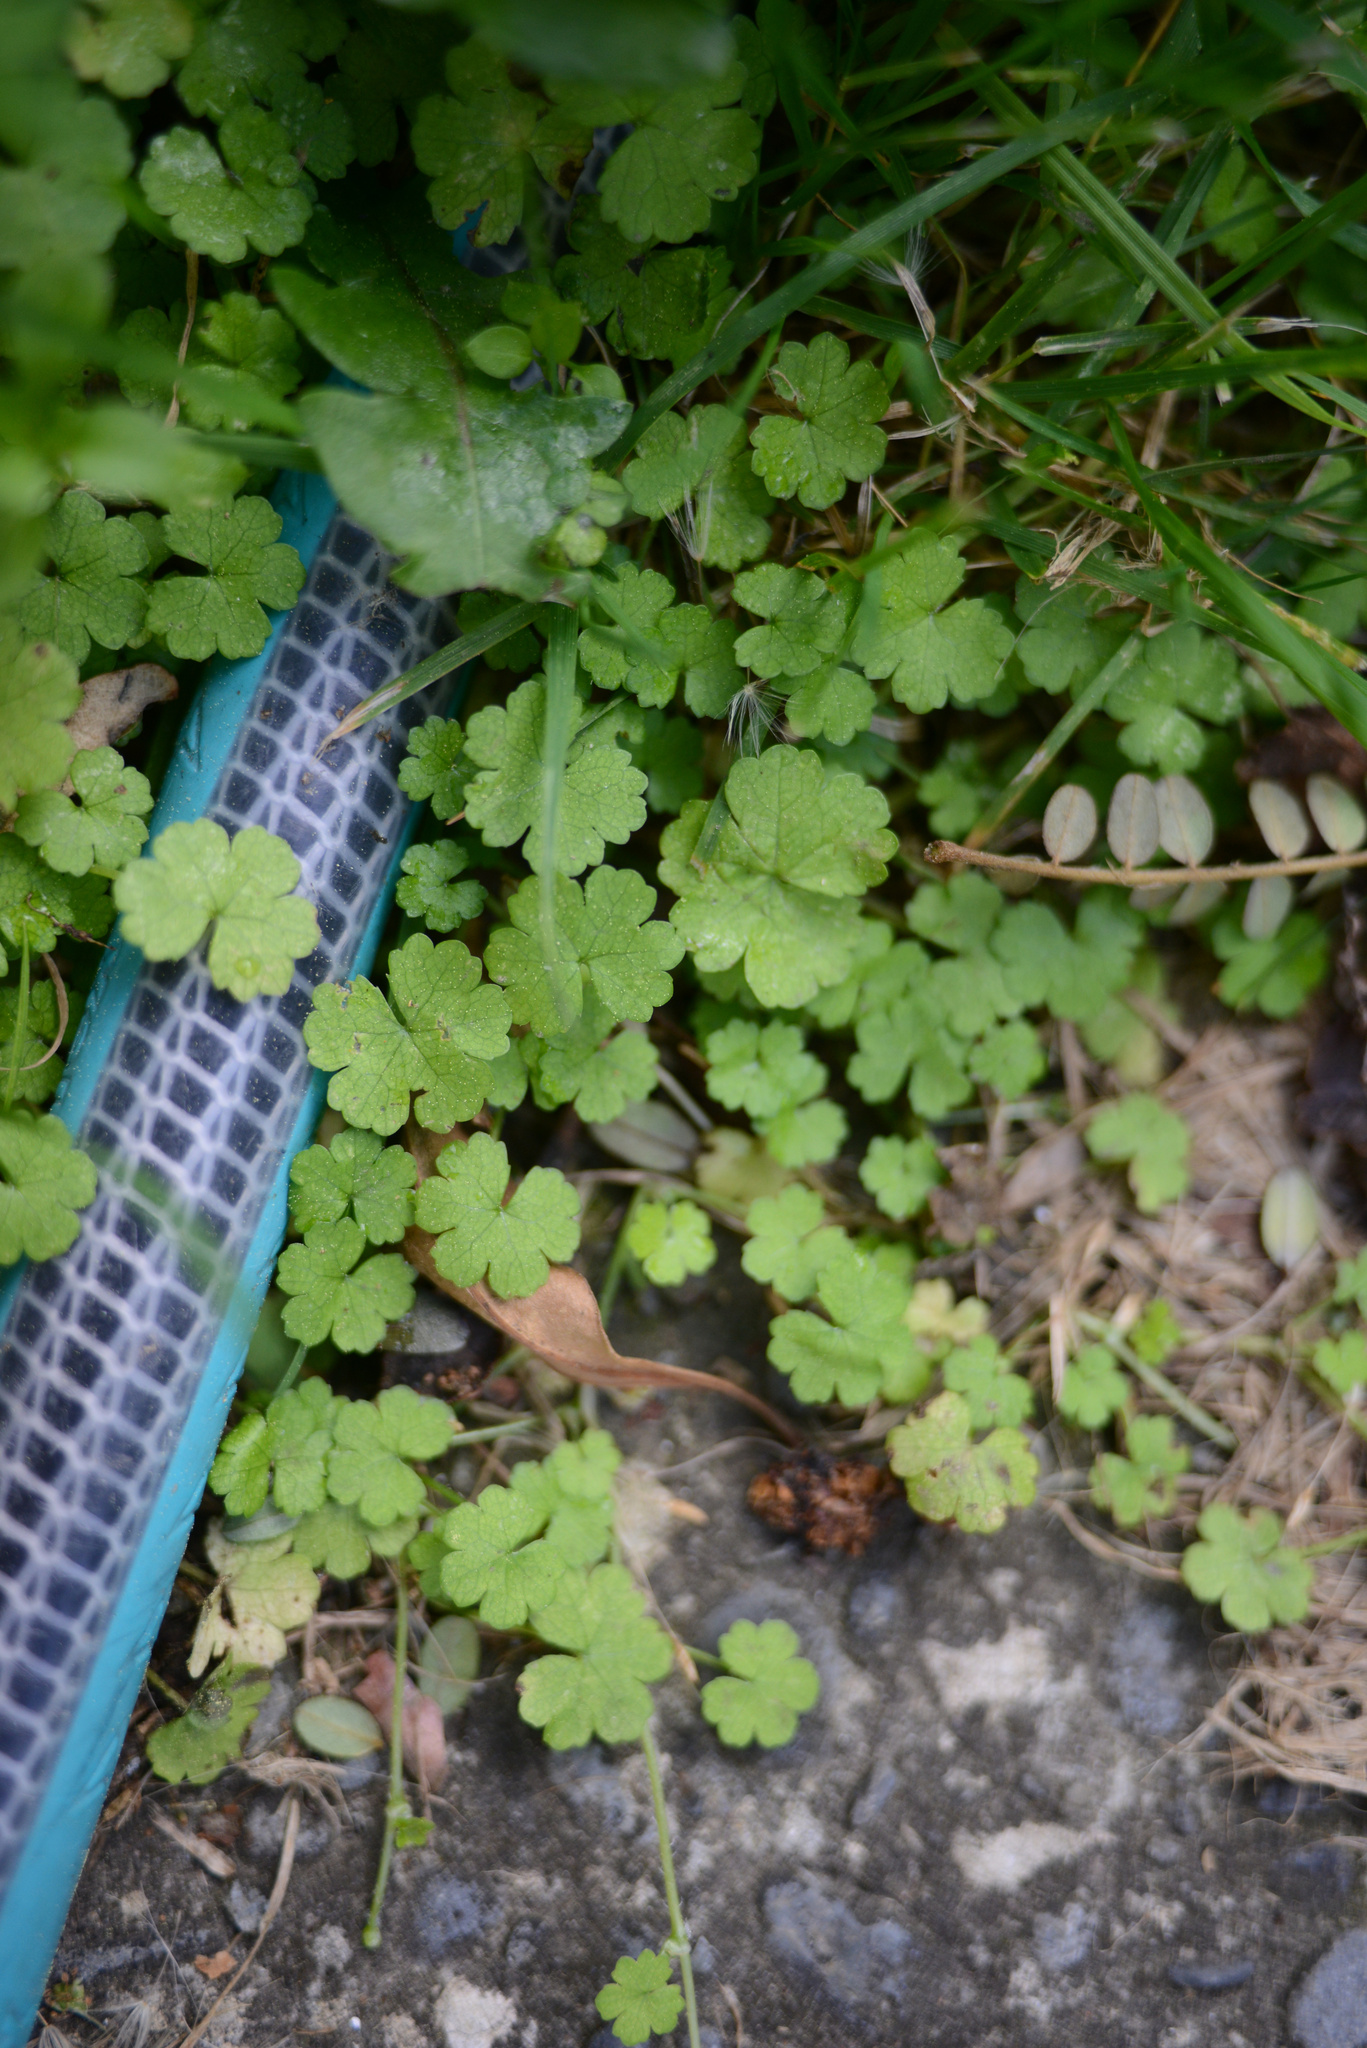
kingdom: Plantae
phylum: Tracheophyta
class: Magnoliopsida
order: Apiales
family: Araliaceae
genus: Hydrocotyle
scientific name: Hydrocotyle heteromeria
